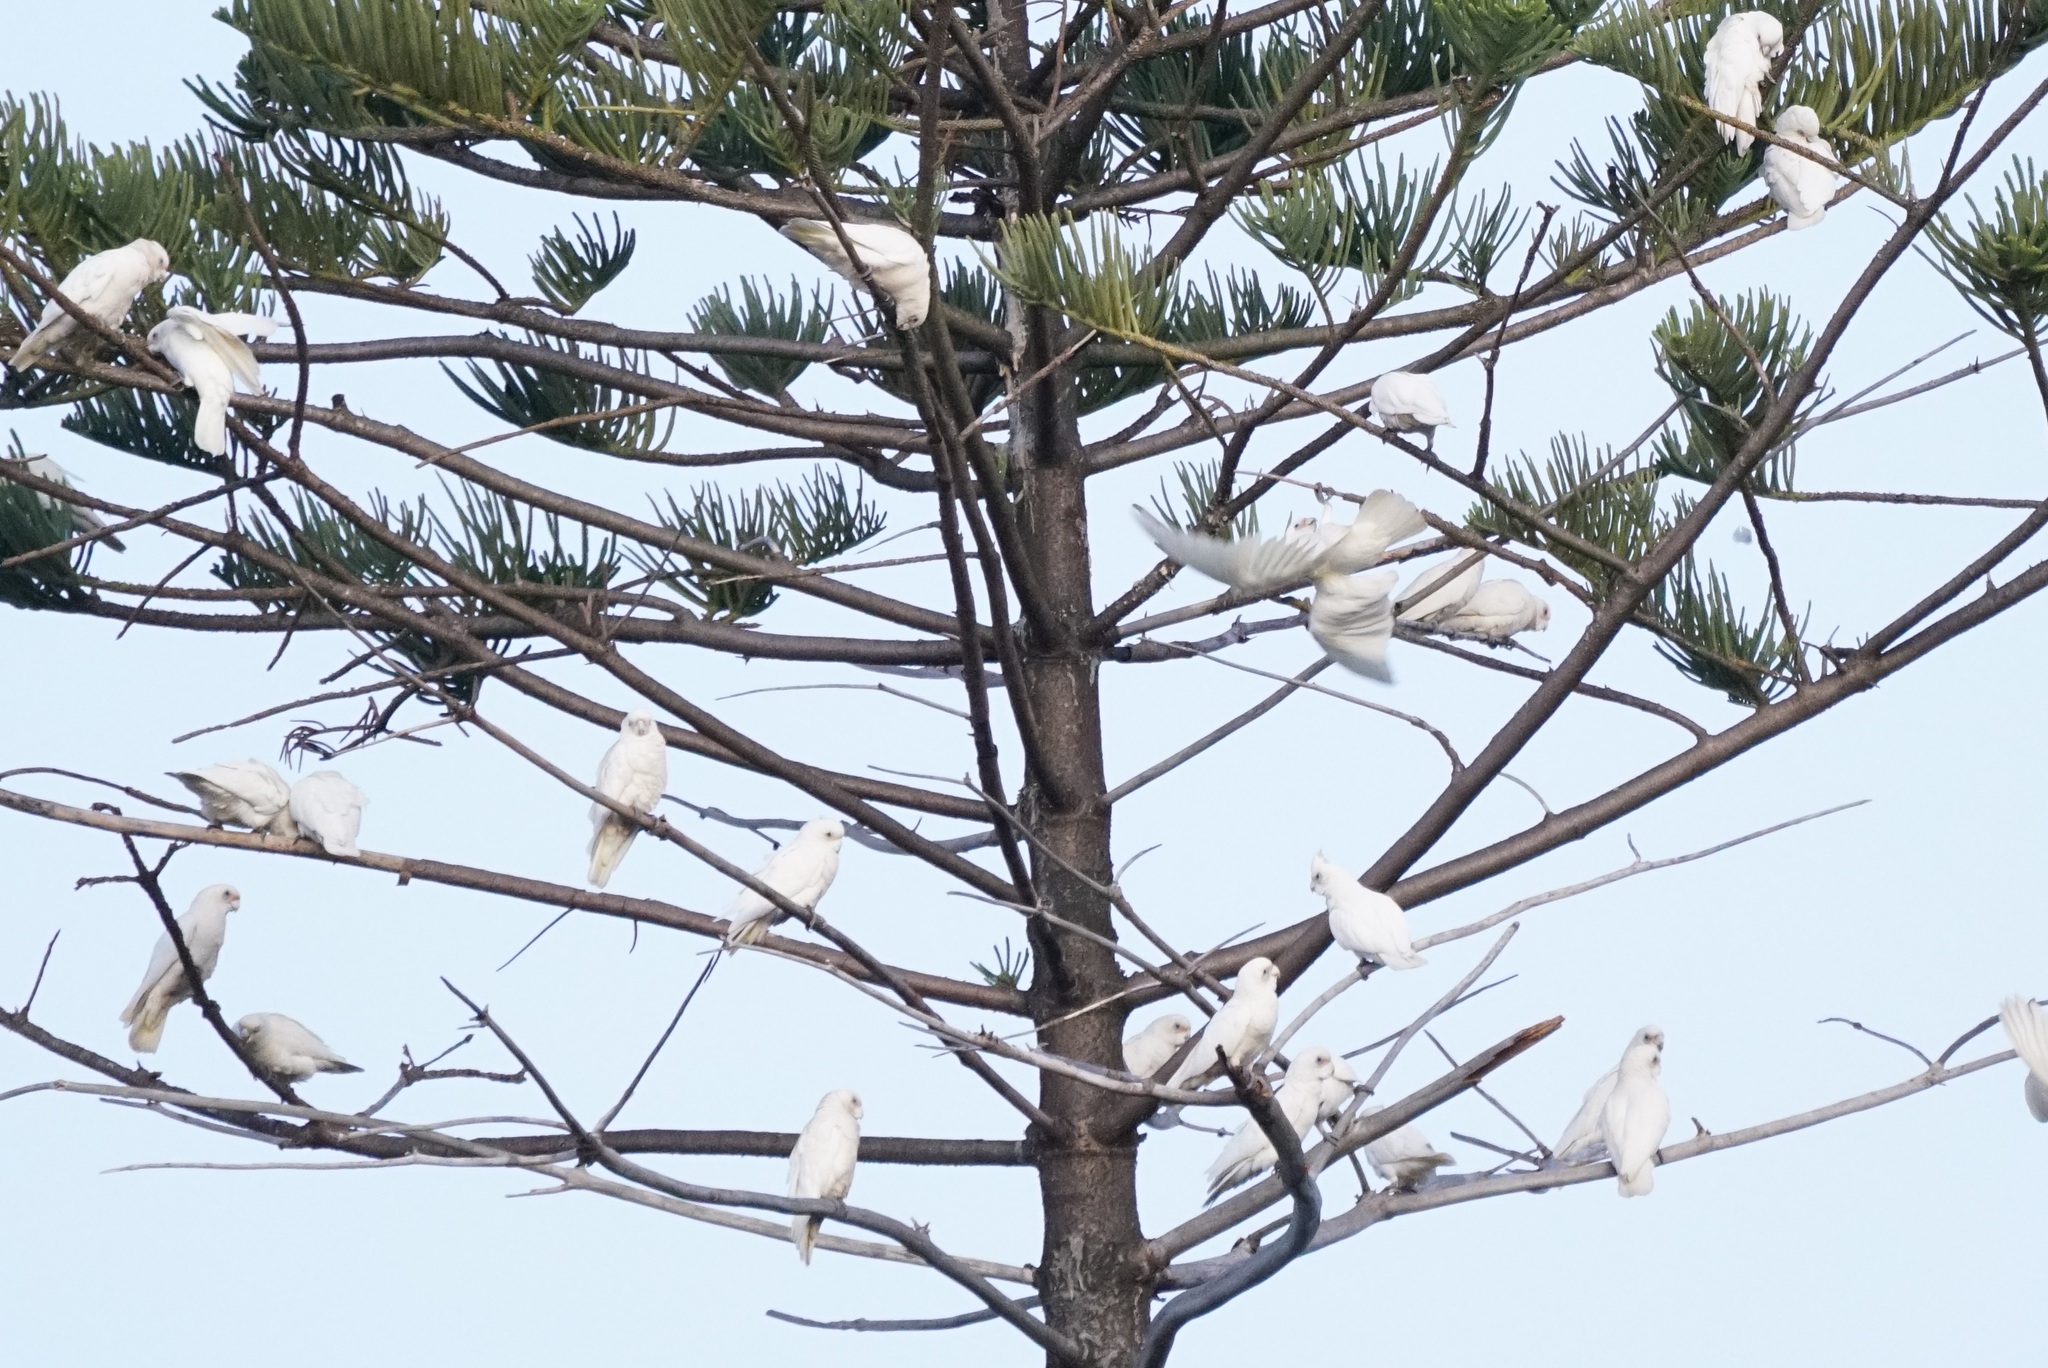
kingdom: Animalia
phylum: Chordata
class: Aves
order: Psittaciformes
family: Psittacidae
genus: Cacatua
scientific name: Cacatua sanguinea
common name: Little corella
